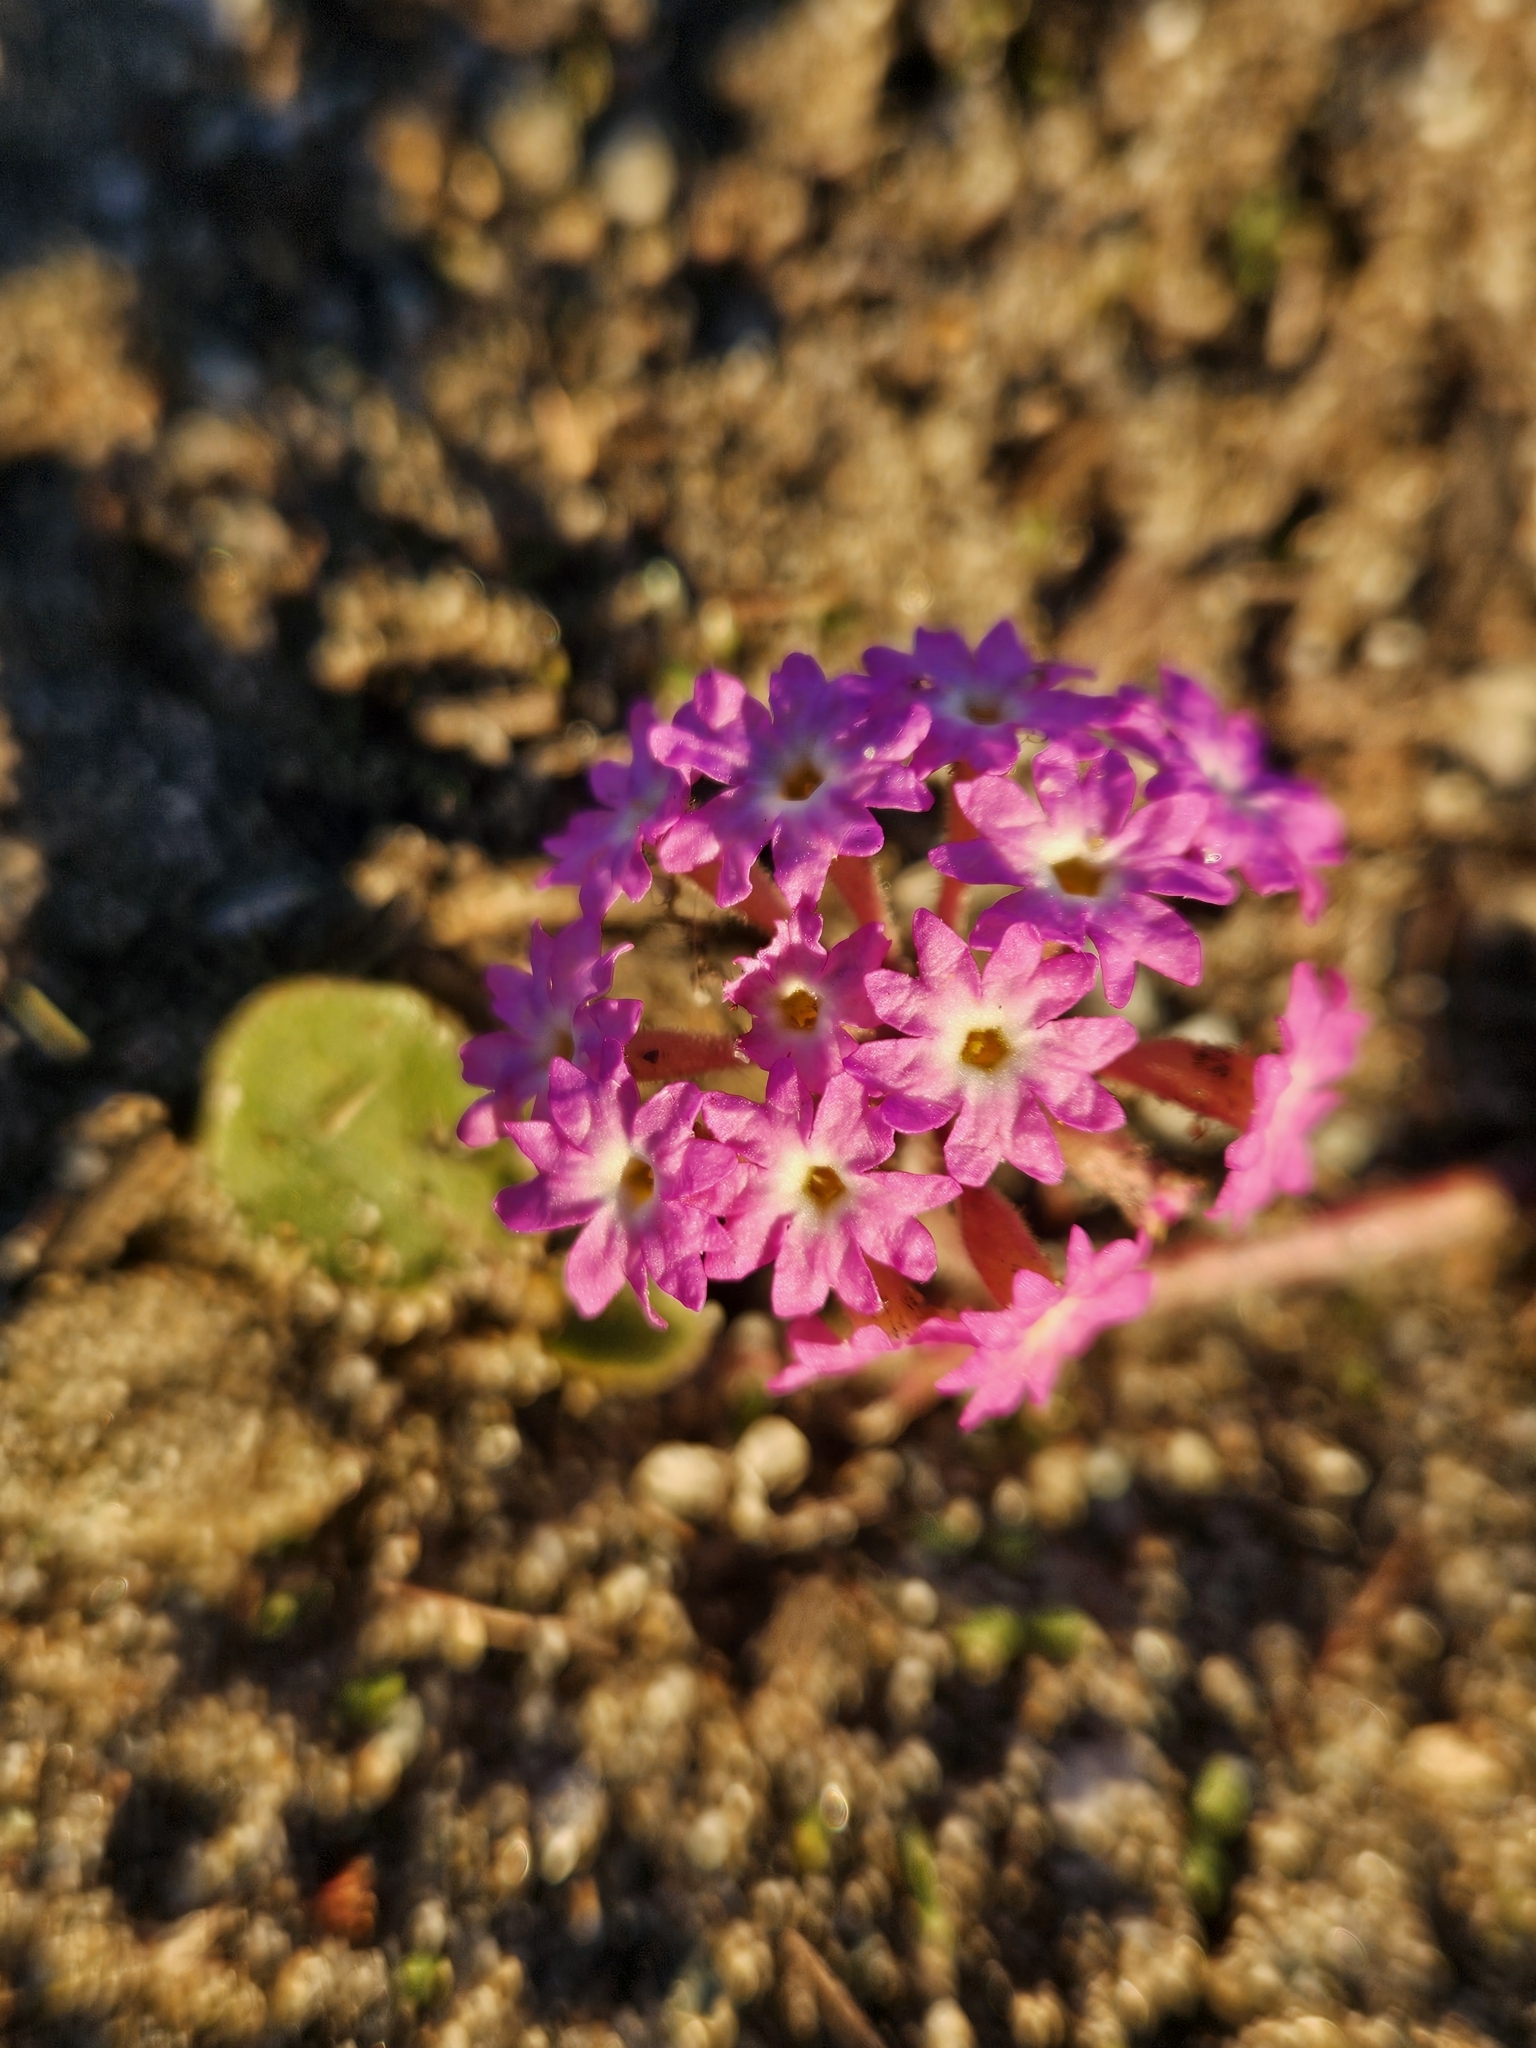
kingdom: Plantae
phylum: Tracheophyta
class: Magnoliopsida
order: Caryophyllales
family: Nyctaginaceae
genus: Abronia
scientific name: Abronia umbellata
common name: Sand-verbena
